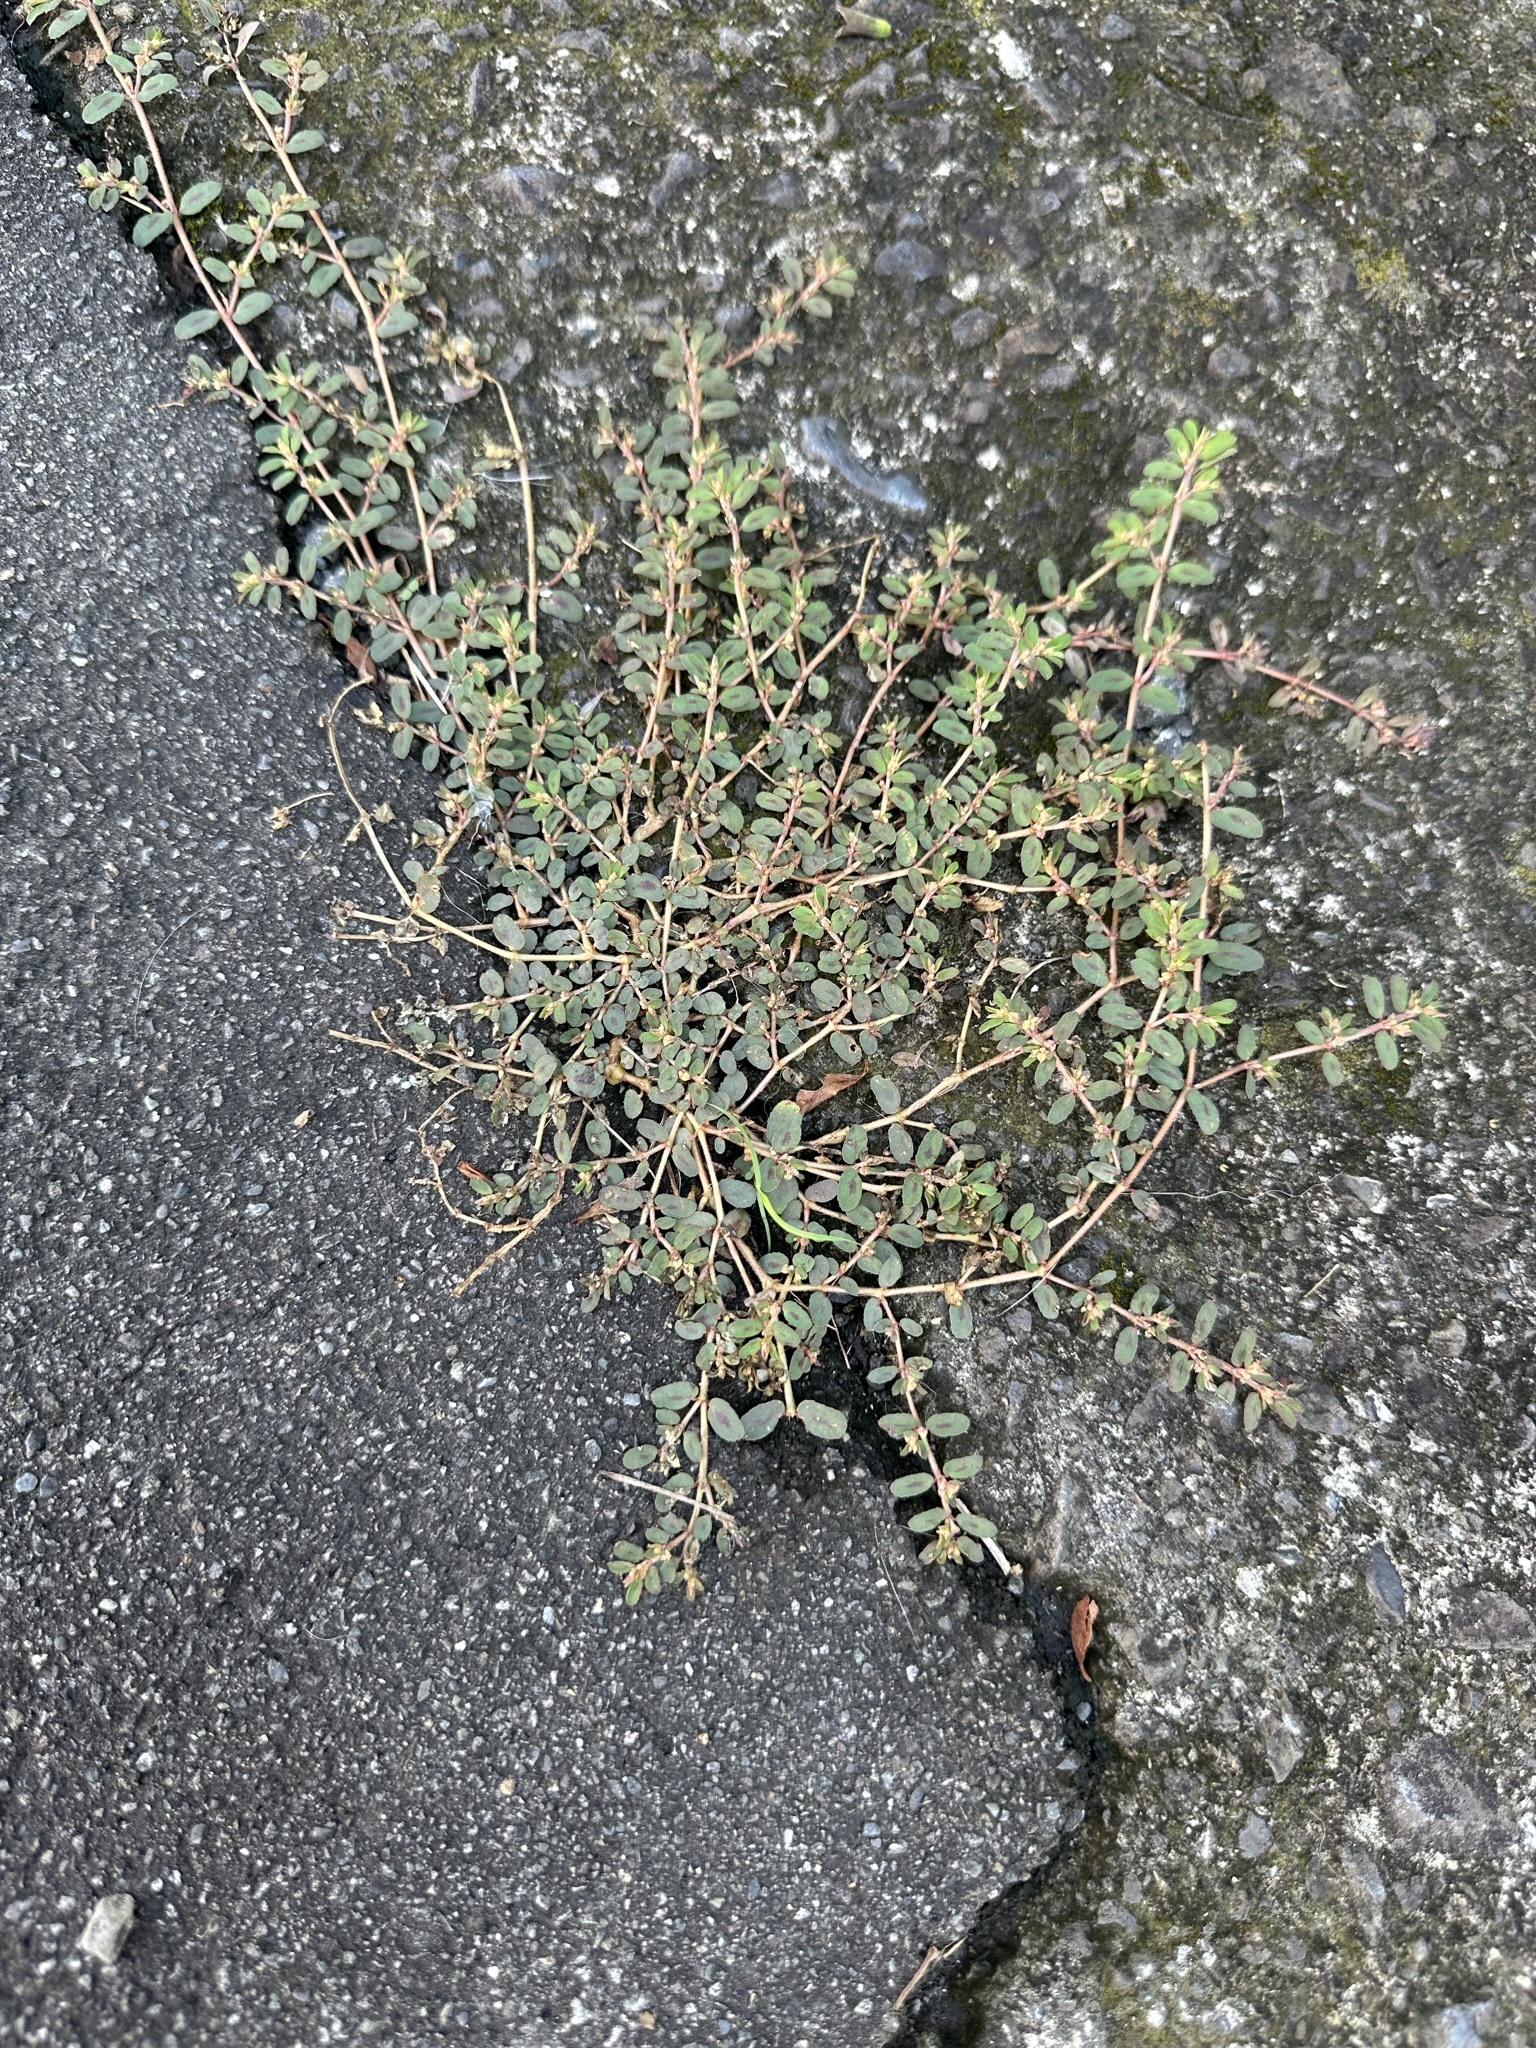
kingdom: Plantae
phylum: Tracheophyta
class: Magnoliopsida
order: Malpighiales
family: Euphorbiaceae
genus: Euphorbia
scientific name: Euphorbia maculata
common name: Spotted spurge
